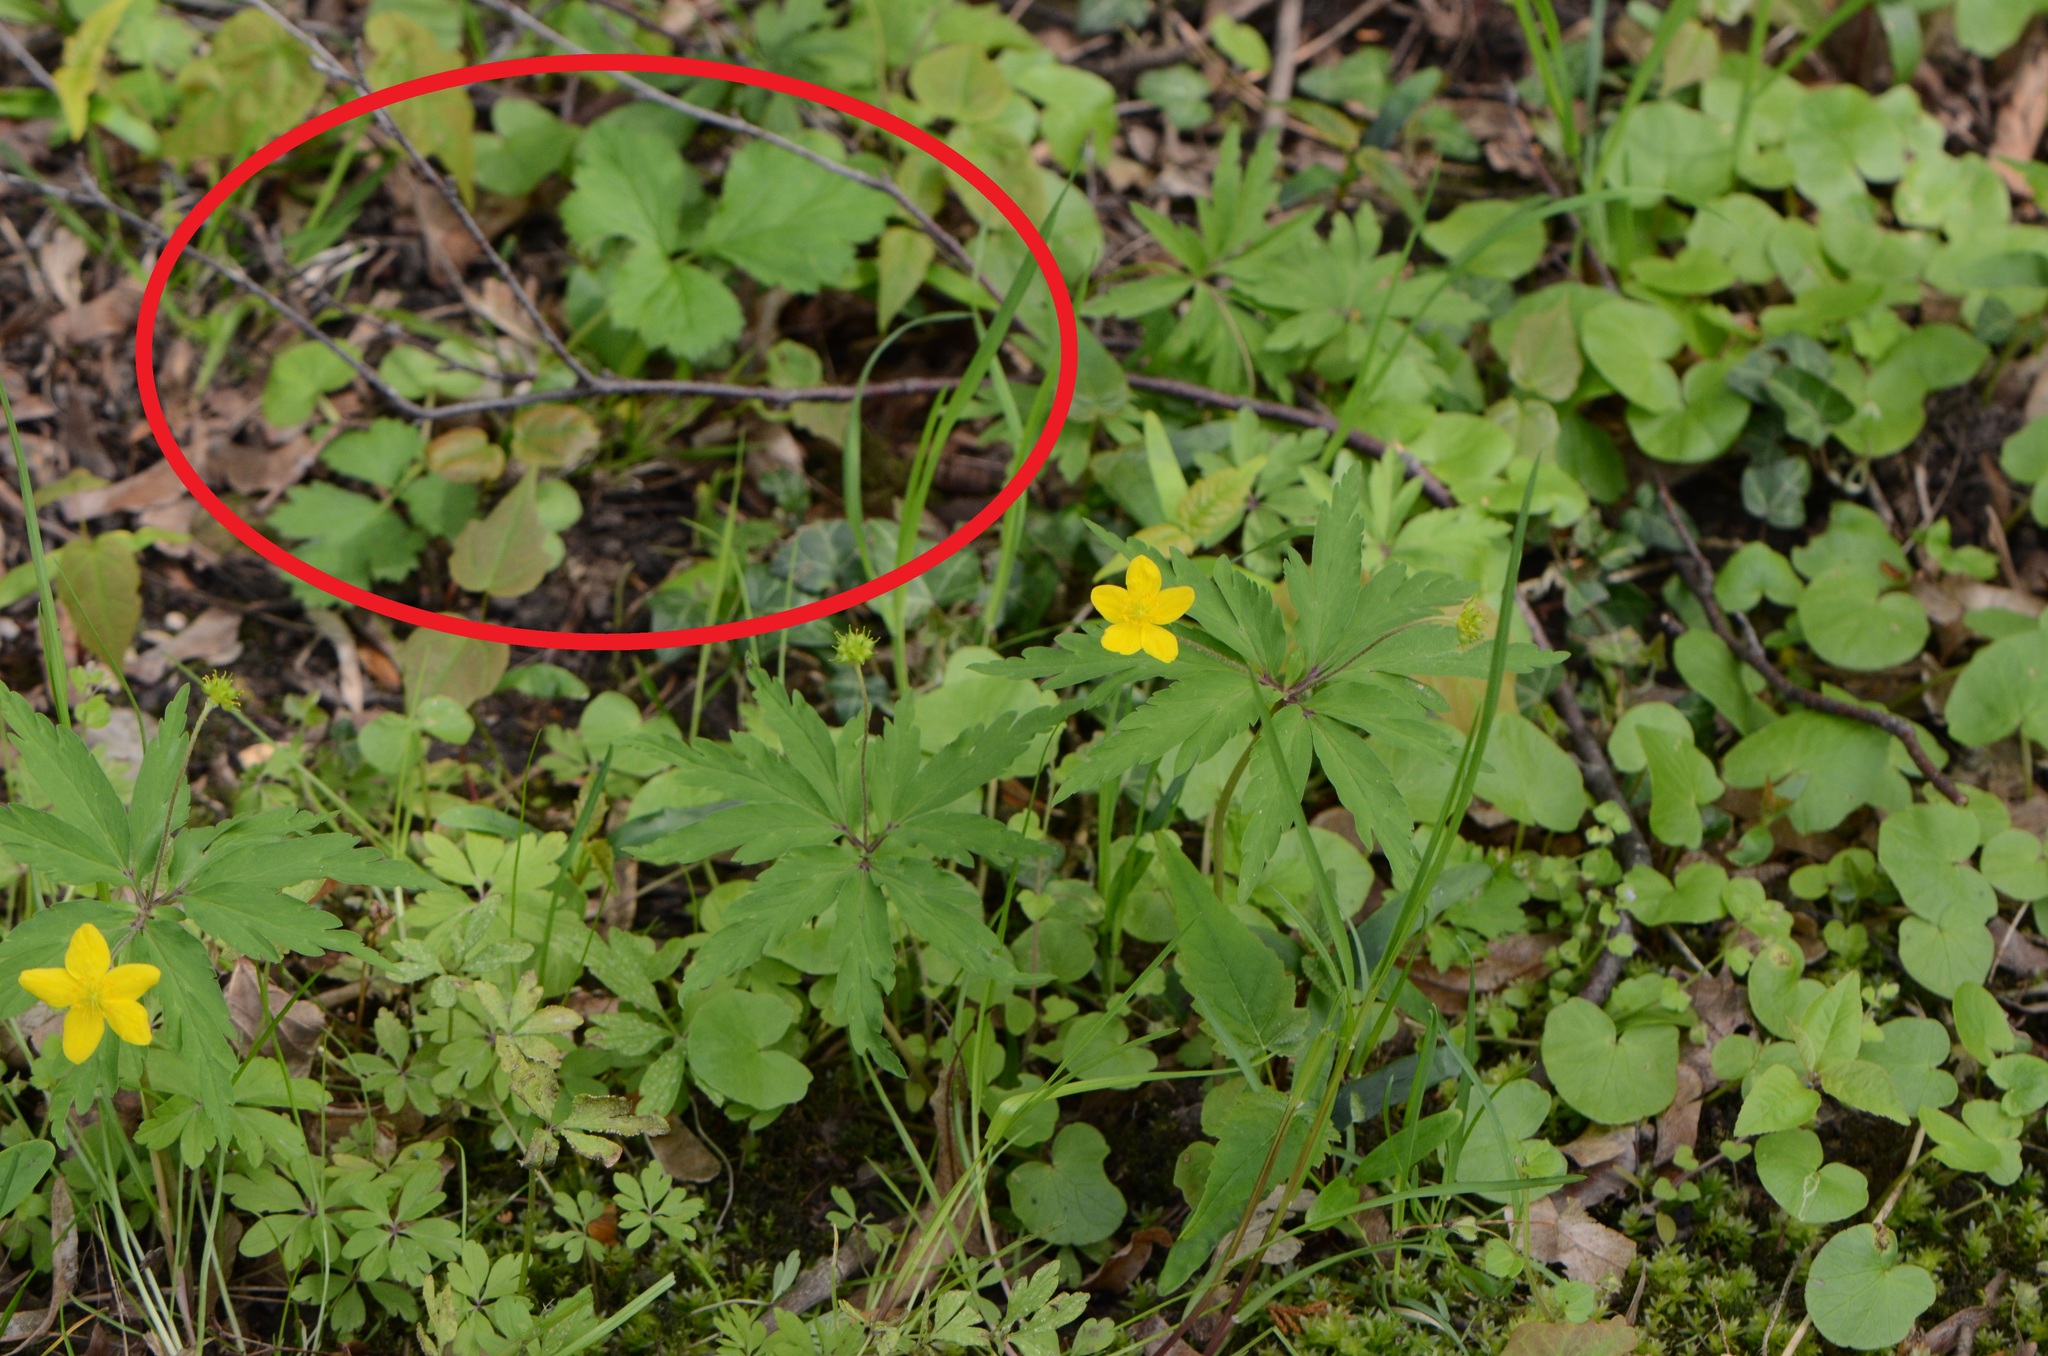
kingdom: Plantae
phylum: Tracheophyta
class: Magnoliopsida
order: Rosales
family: Rosaceae
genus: Geum
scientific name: Geum urbanum
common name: Wood avens
